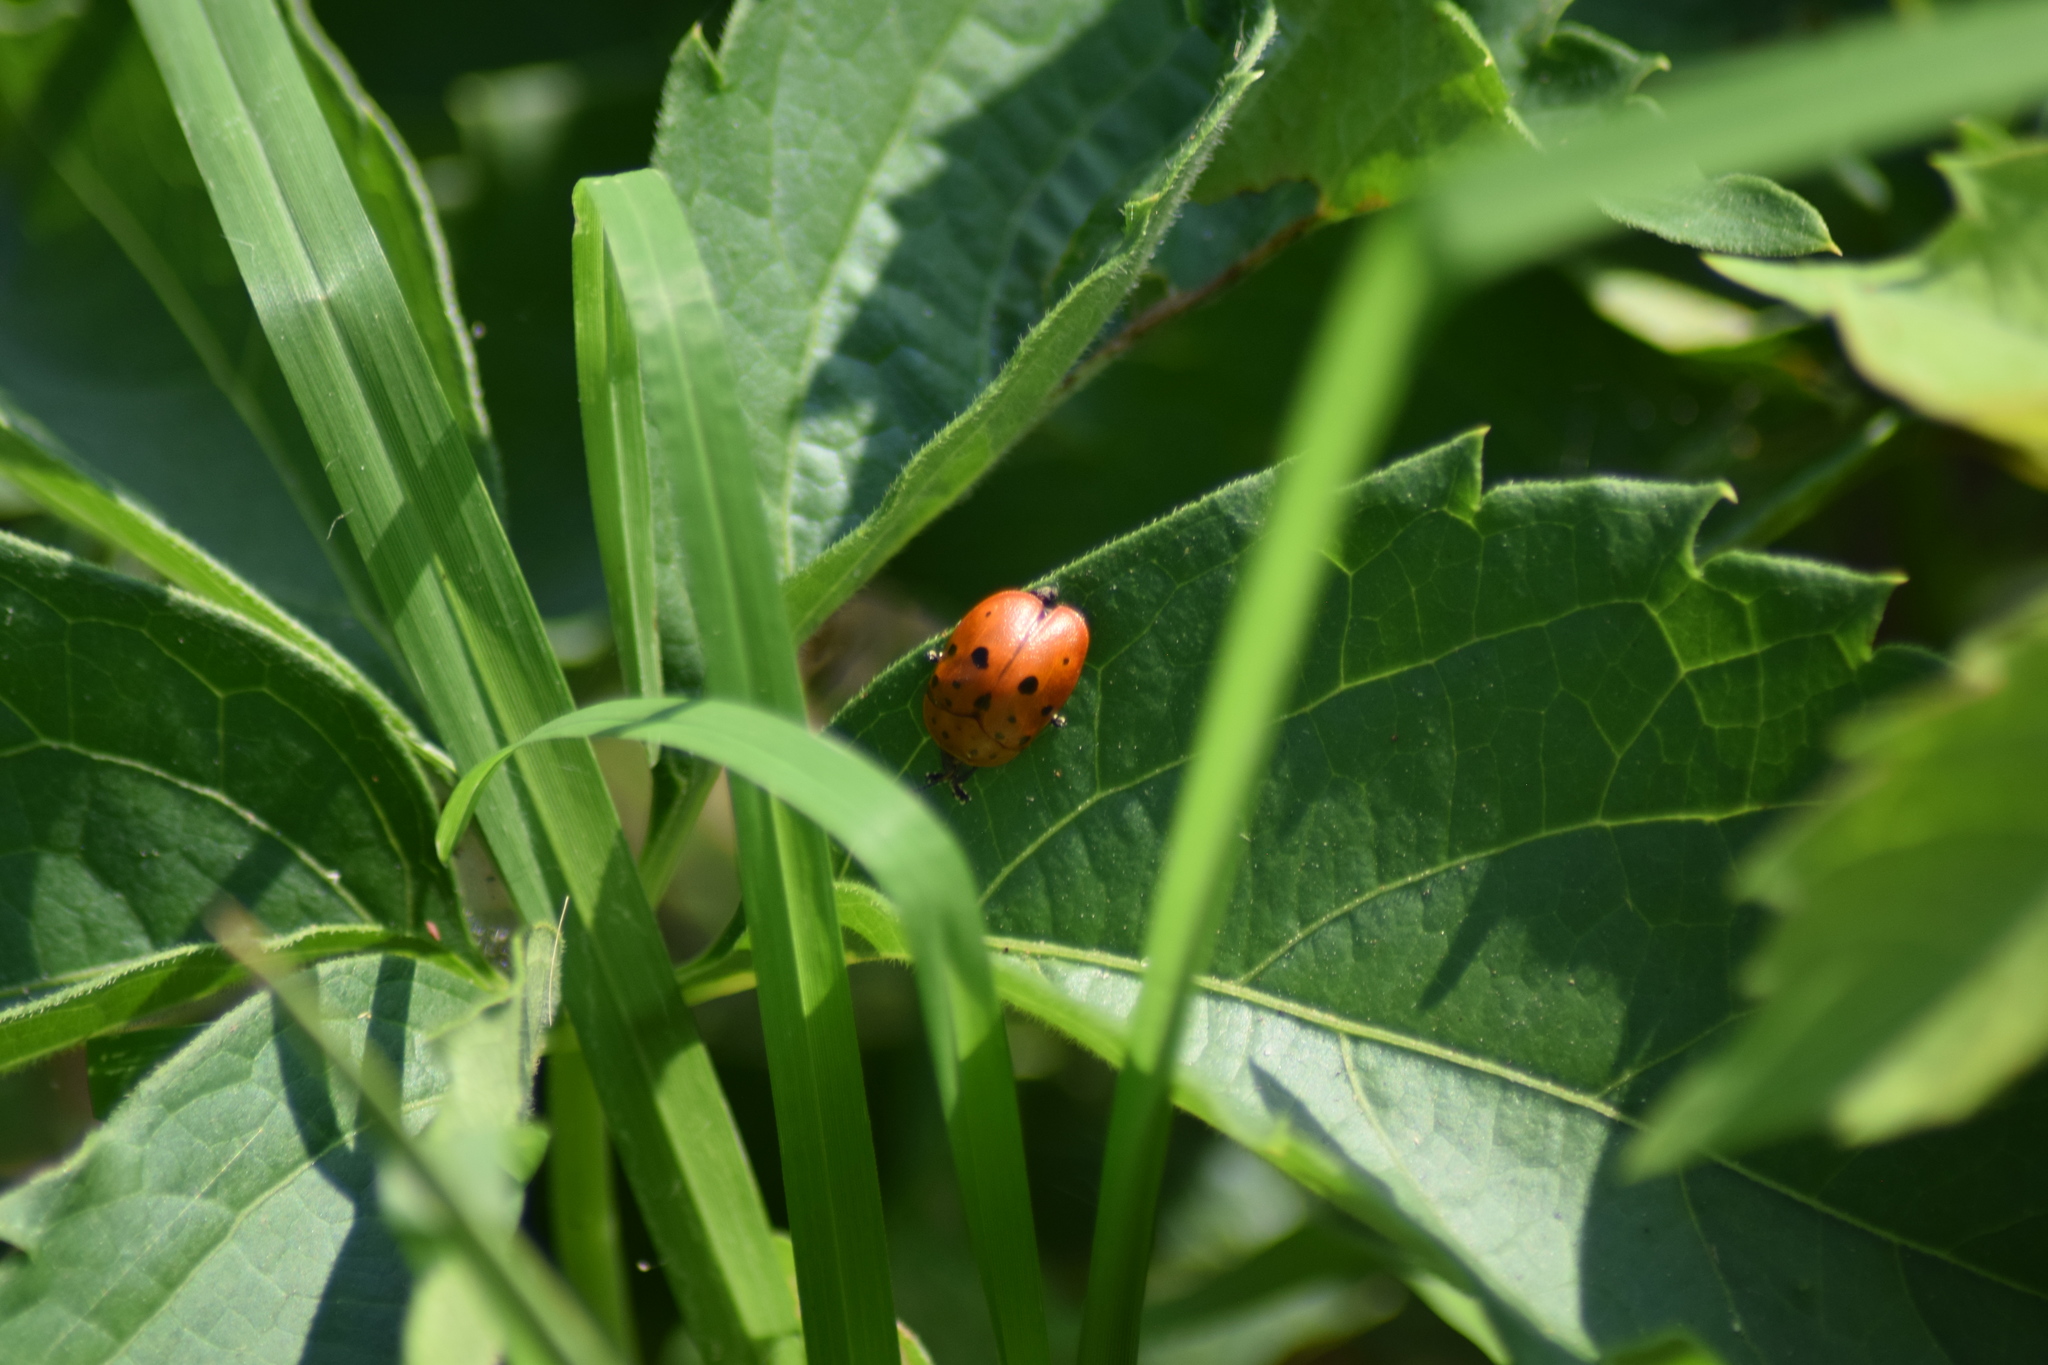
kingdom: Animalia
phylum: Arthropoda
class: Insecta
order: Coleoptera
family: Chrysomelidae
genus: Chelymorpha
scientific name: Chelymorpha cassidea
